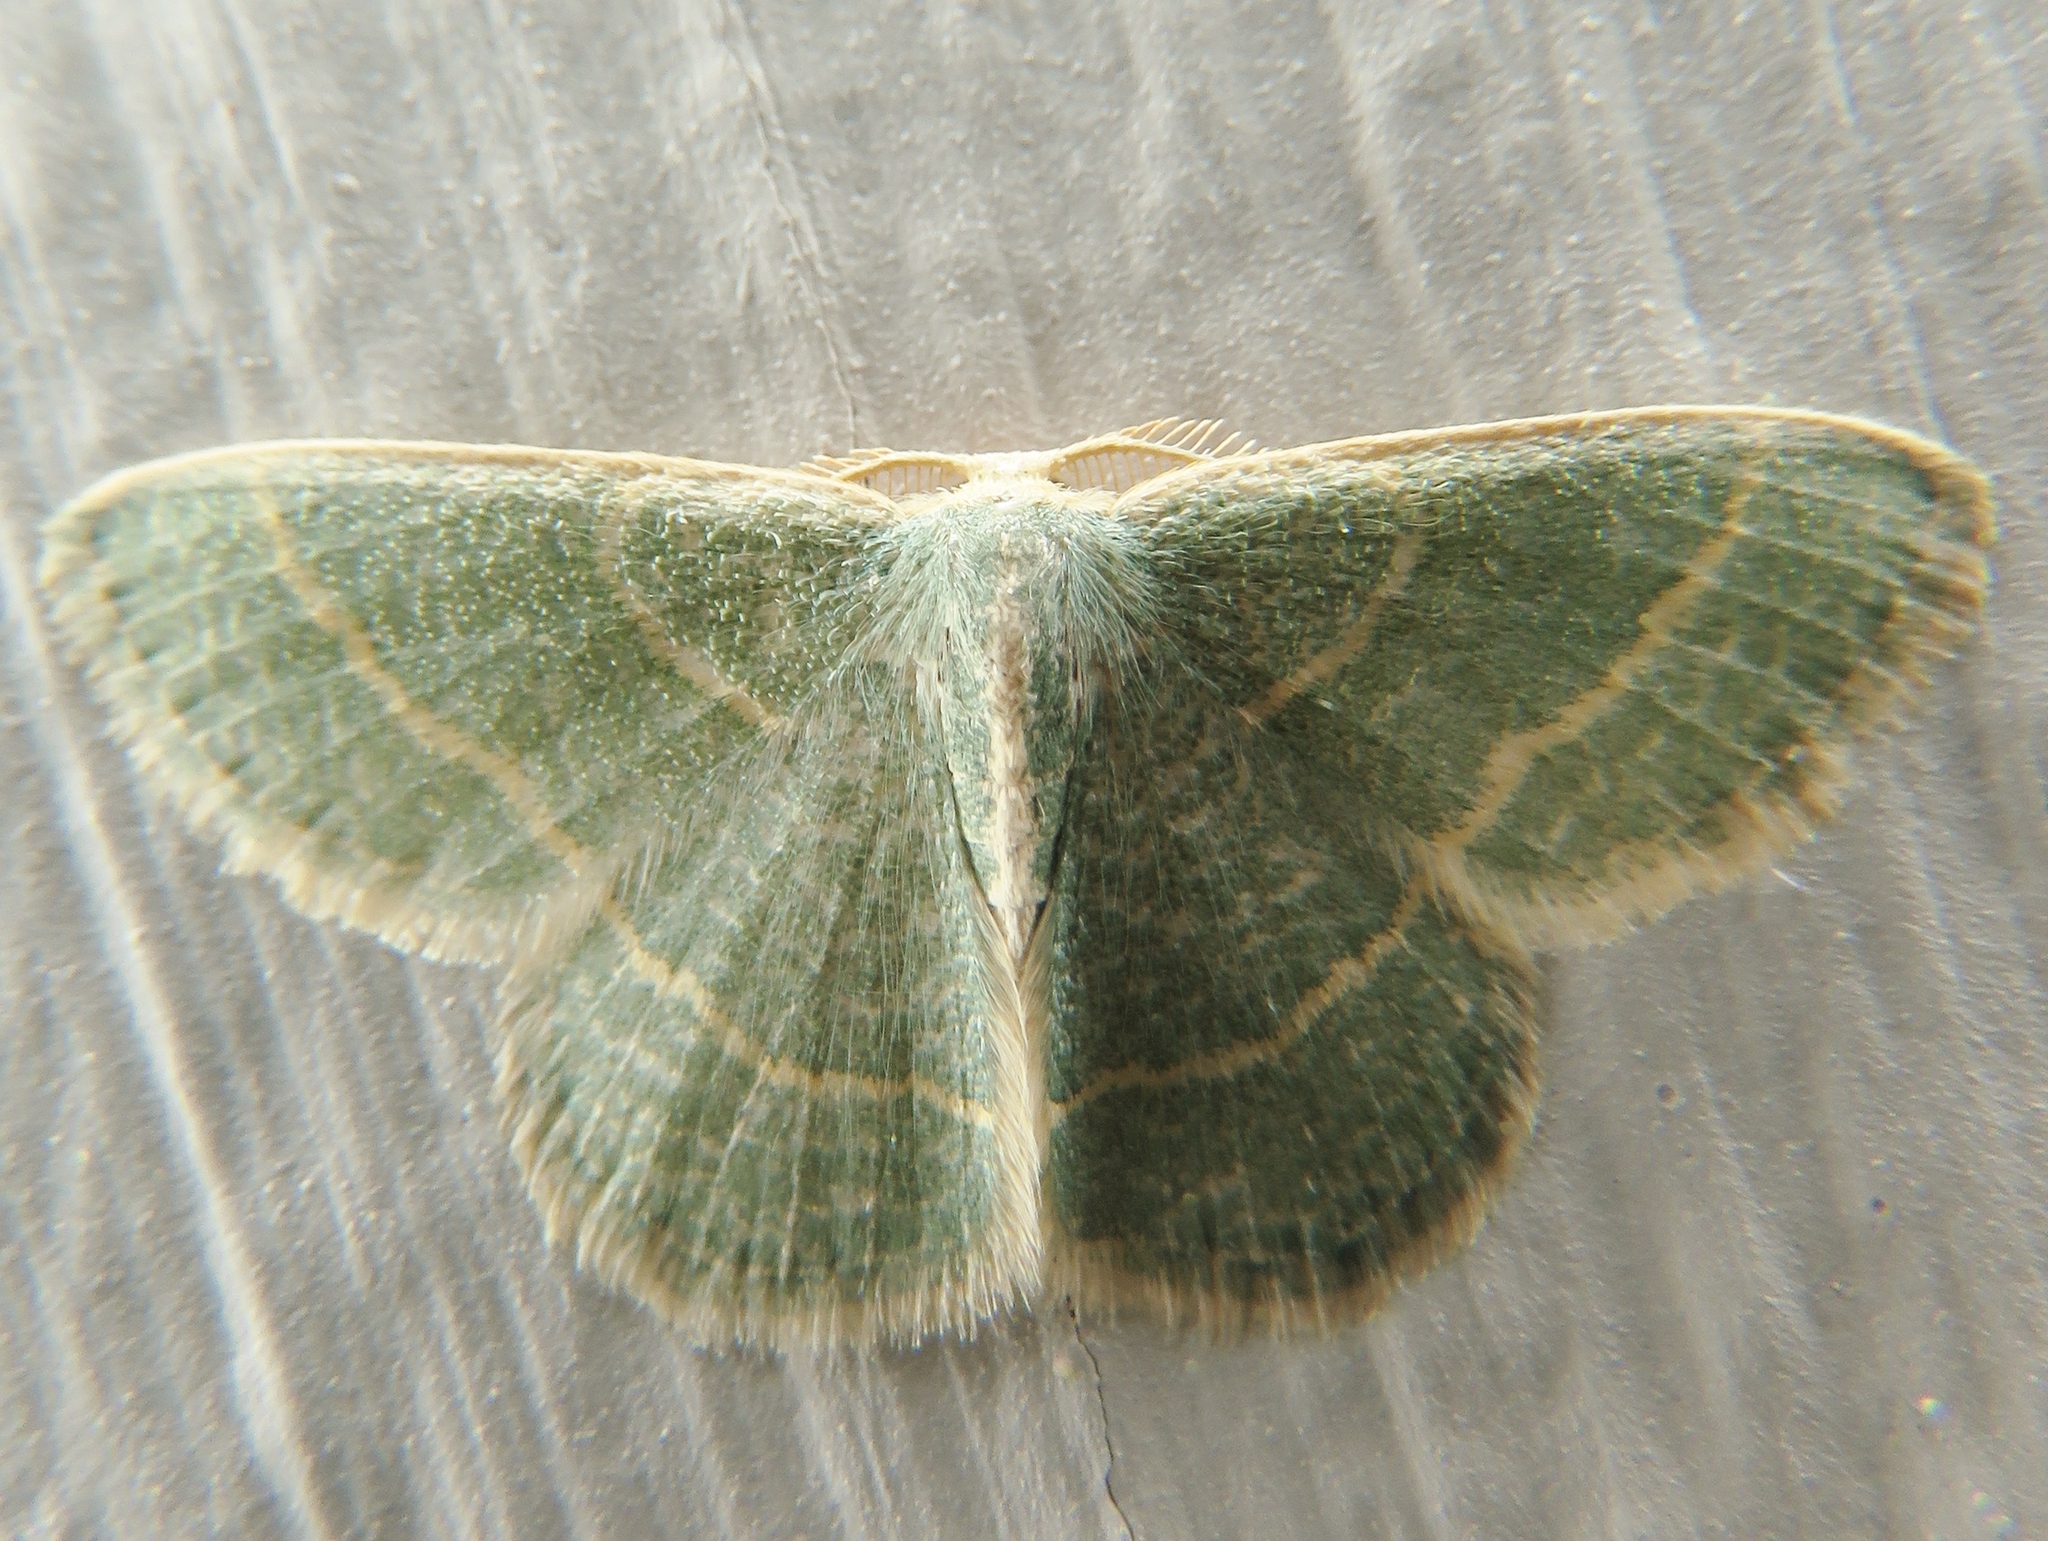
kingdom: Animalia
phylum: Arthropoda
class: Insecta
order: Lepidoptera
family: Geometridae
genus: Chlorochlamys
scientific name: Chlorochlamys chloroleucaria
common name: Blackberry looper
